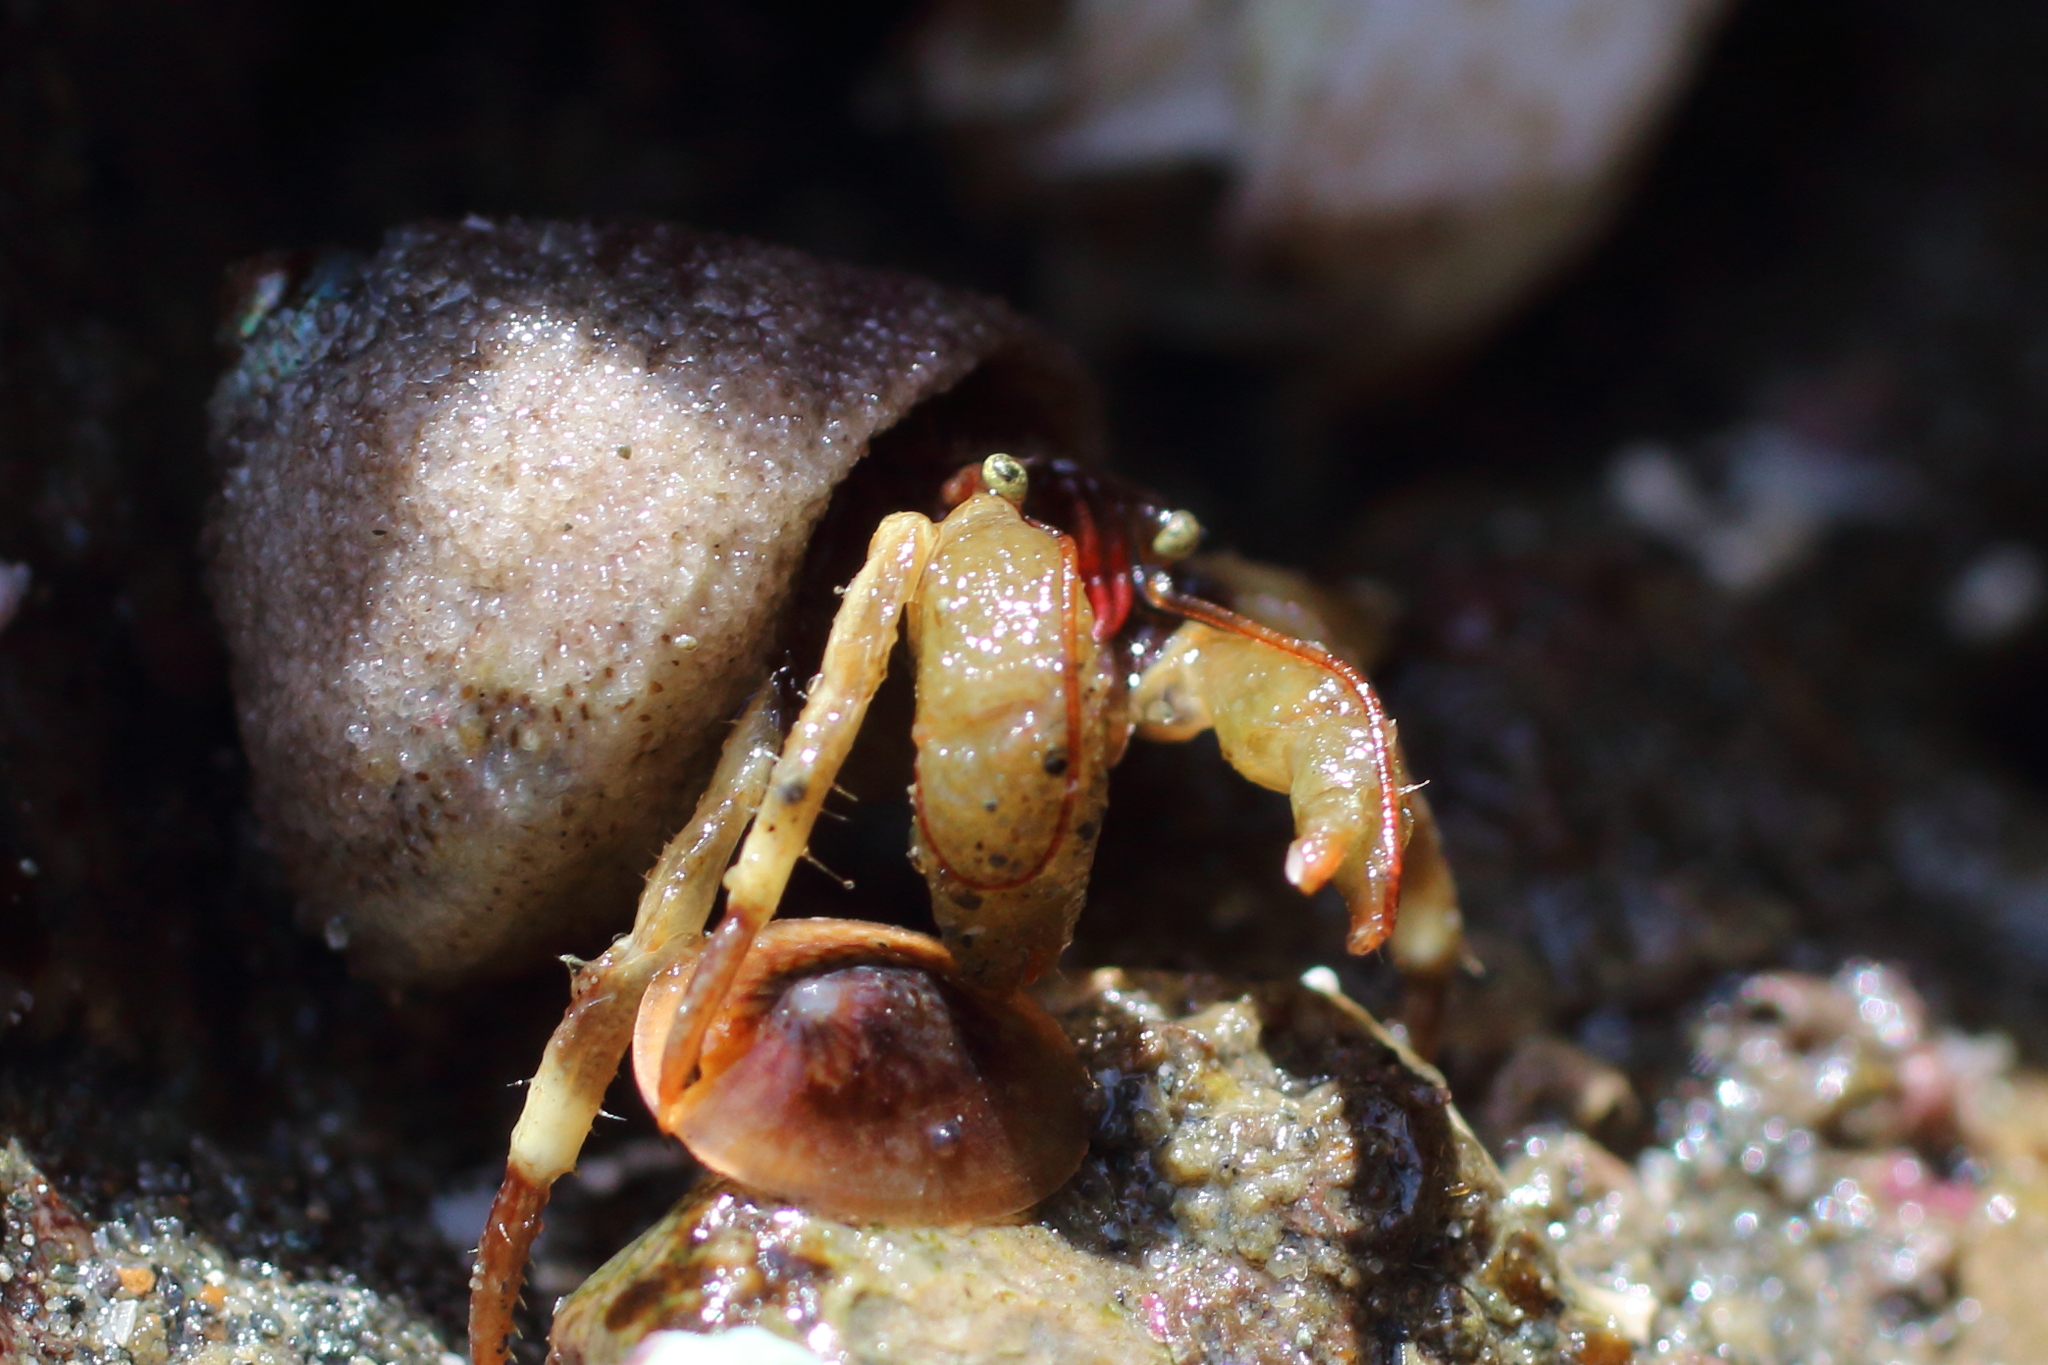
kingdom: Animalia
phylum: Arthropoda
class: Malacostraca
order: Decapoda
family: Paguridae
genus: Pagurus
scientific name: Pagurus beringanus
